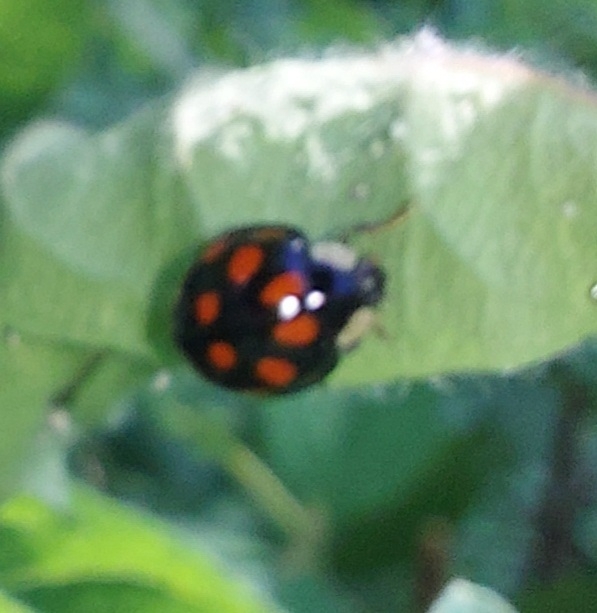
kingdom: Animalia
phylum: Arthropoda
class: Insecta
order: Coleoptera
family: Coccinellidae
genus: Harmonia
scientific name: Harmonia axyridis
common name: Harlequin ladybird
